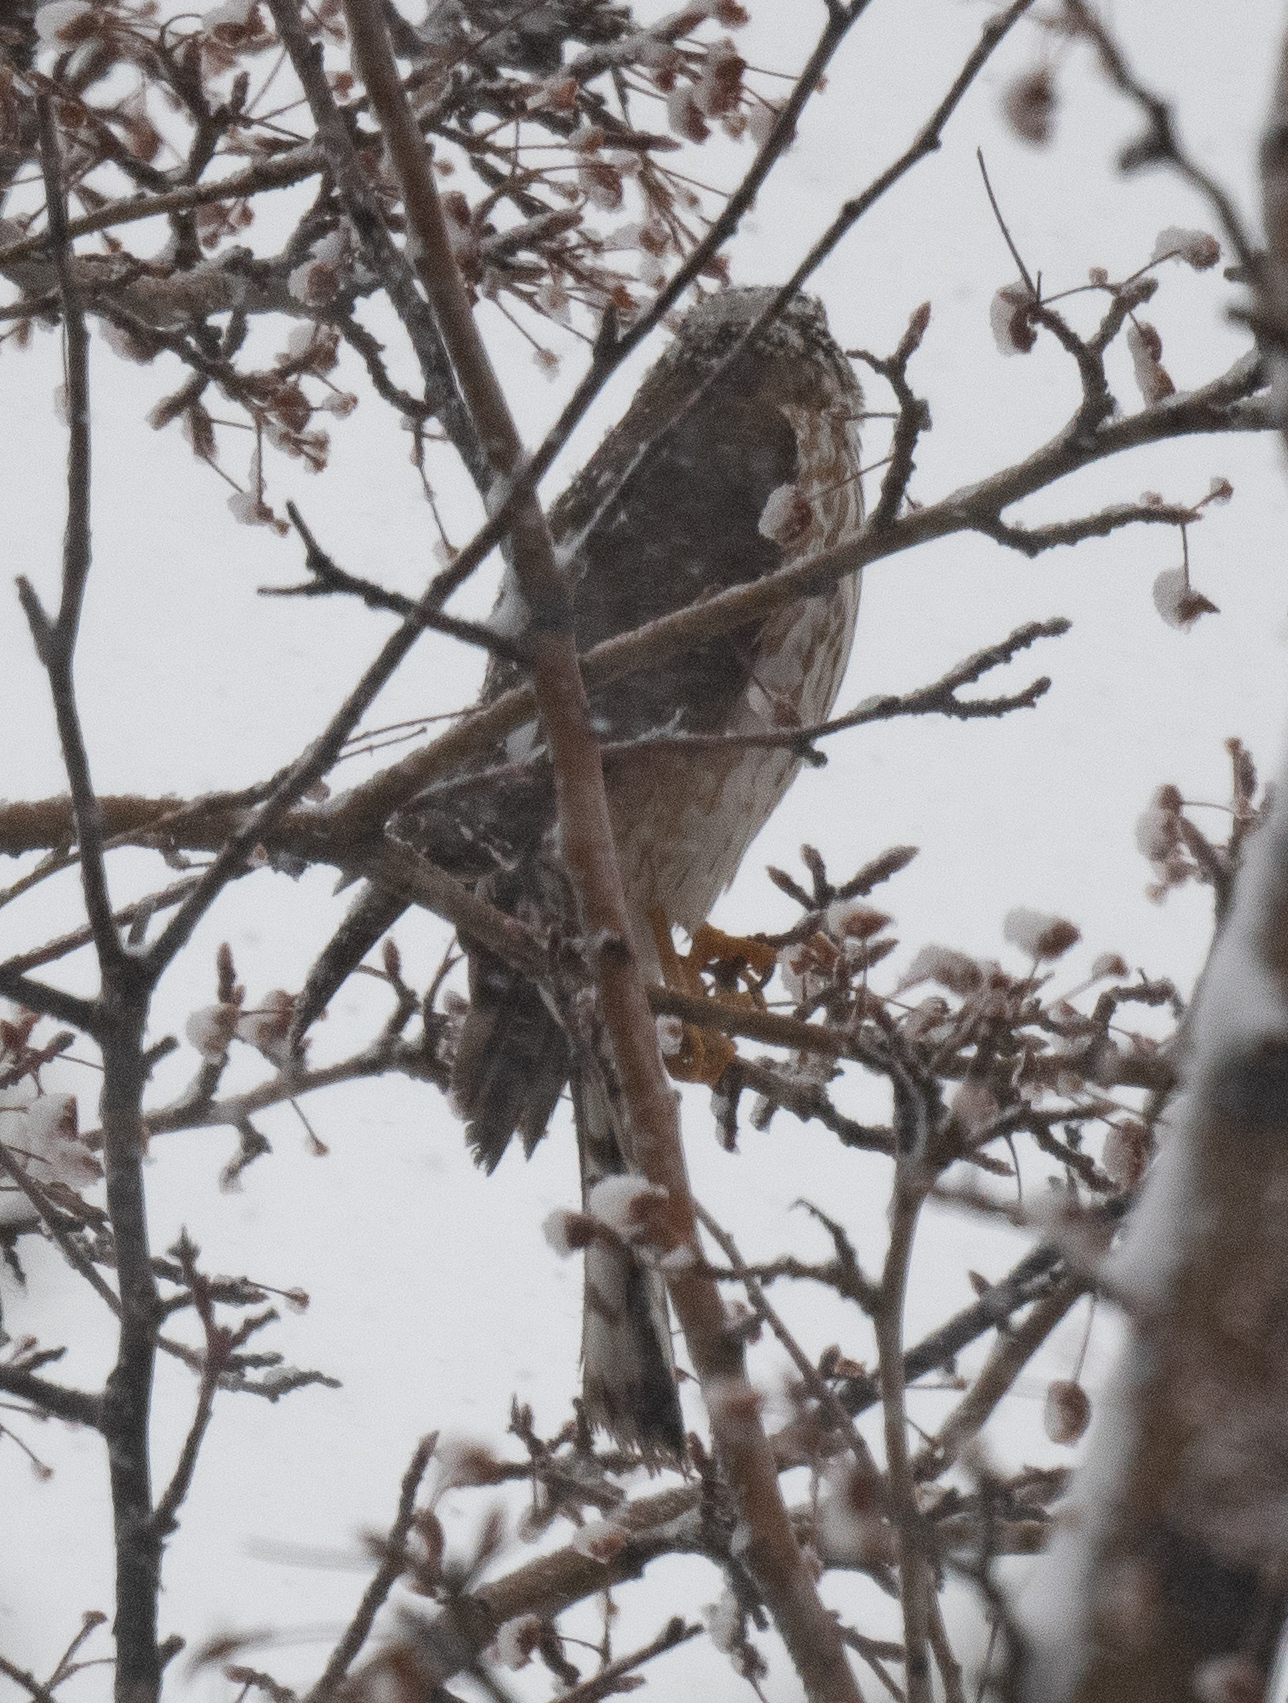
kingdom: Animalia
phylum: Chordata
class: Aves
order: Accipitriformes
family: Accipitridae
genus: Accipiter
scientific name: Accipiter striatus
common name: Sharp-shinned hawk
